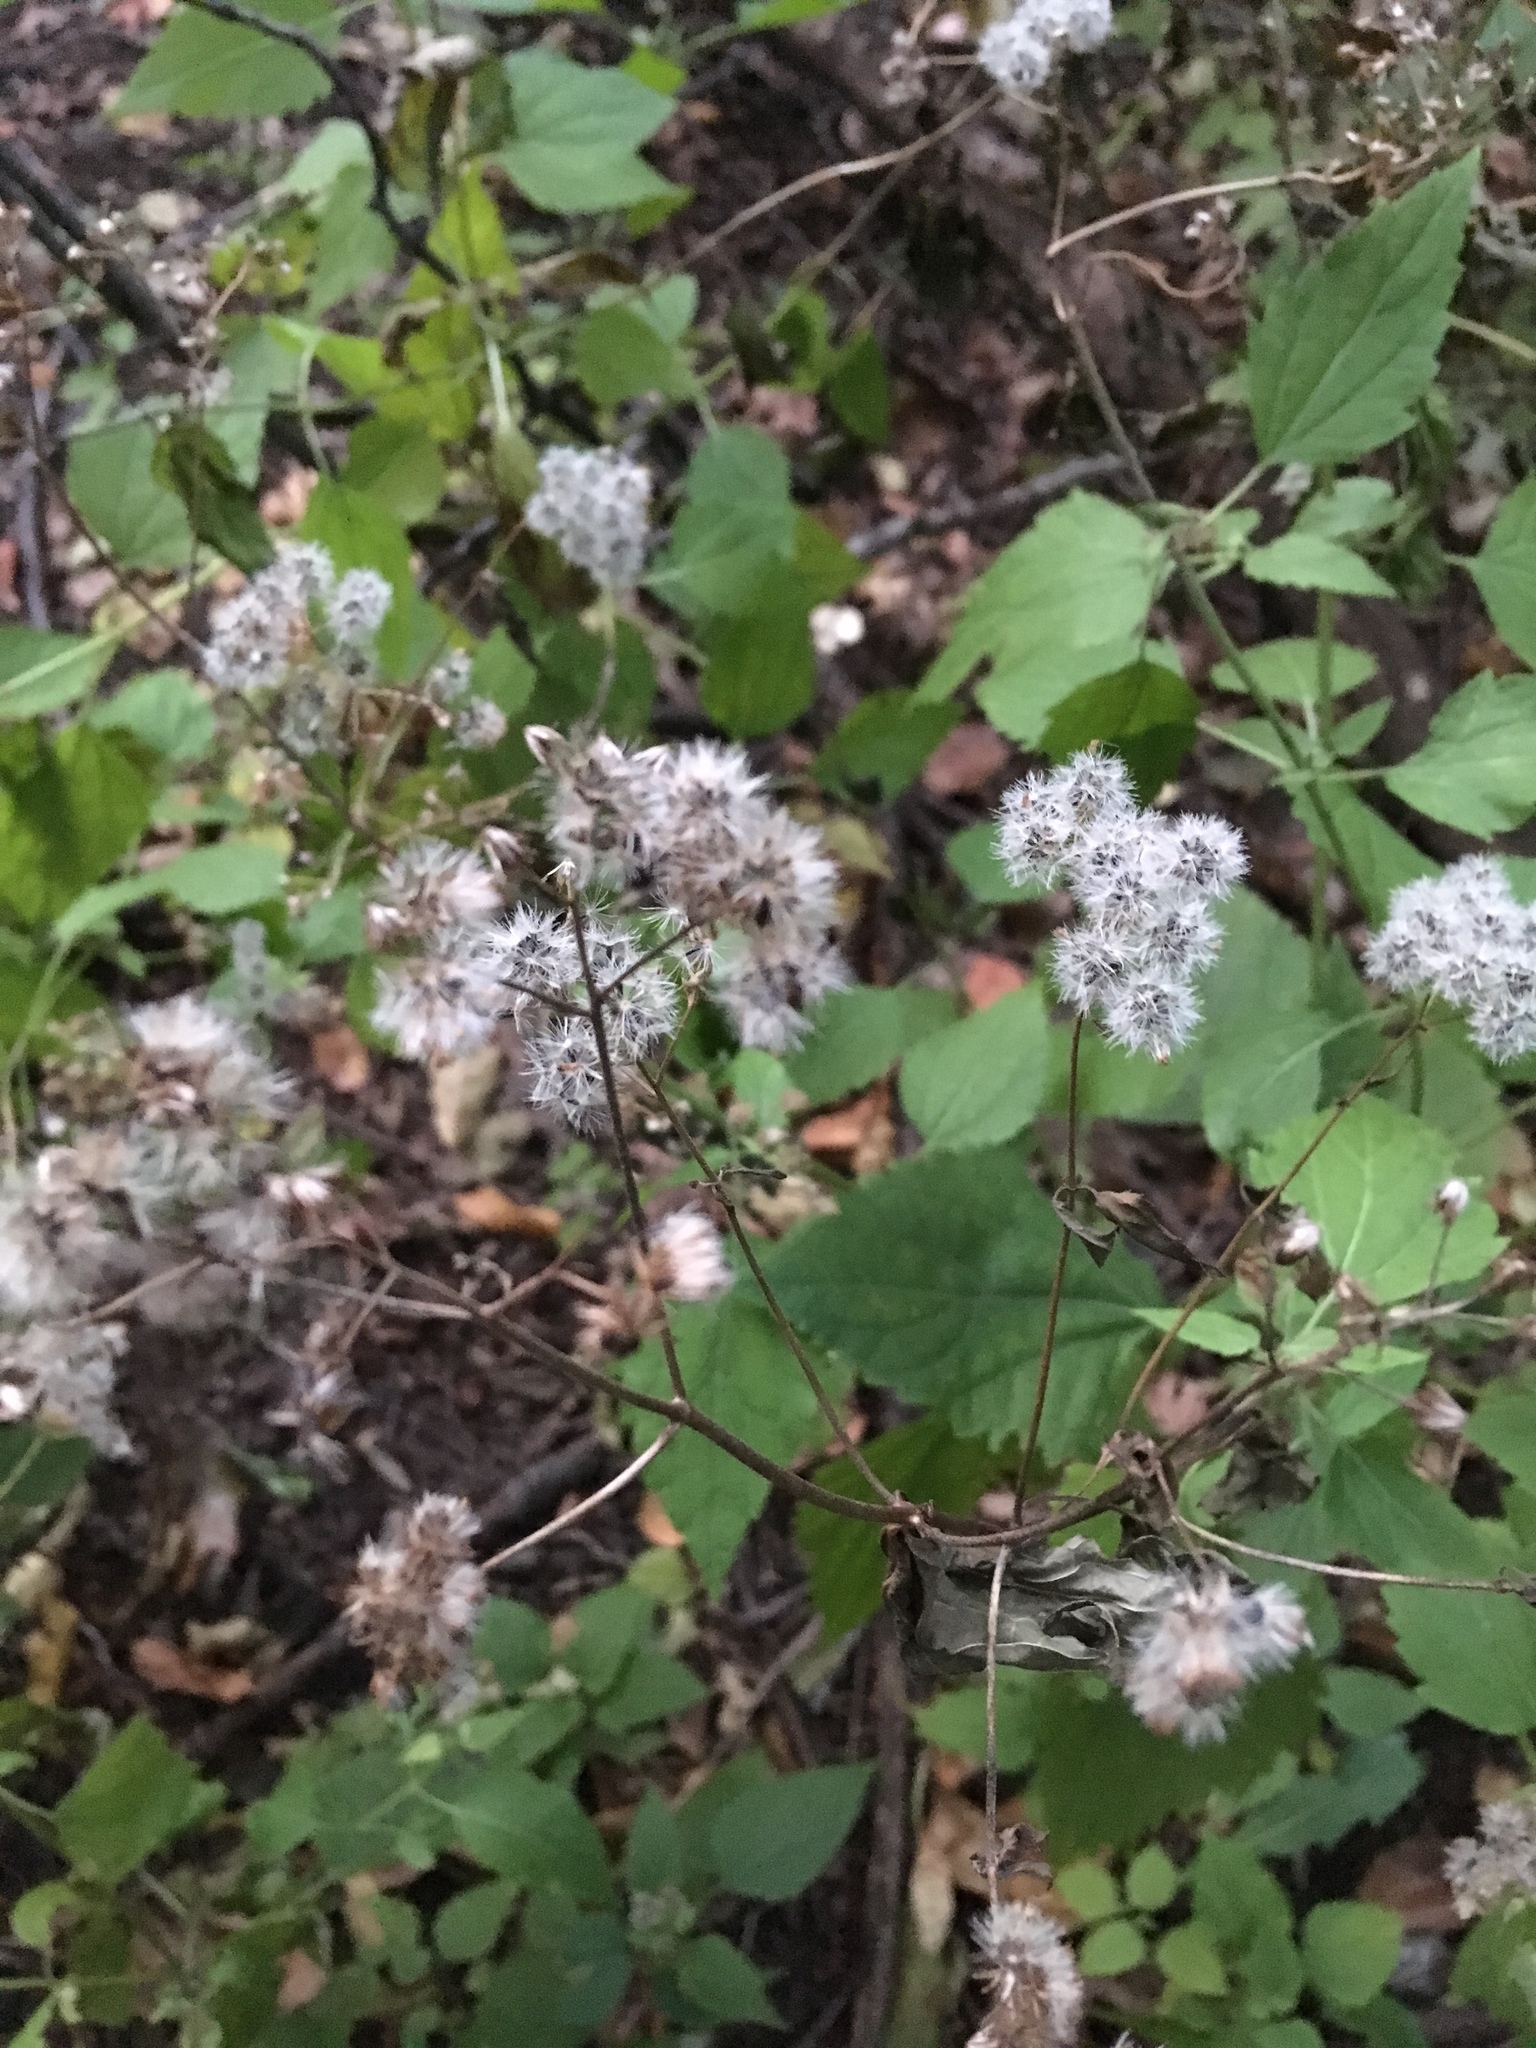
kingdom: Plantae
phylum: Tracheophyta
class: Magnoliopsida
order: Asterales
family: Asteraceae
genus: Ageratina
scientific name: Ageratina altissima
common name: White snakeroot
